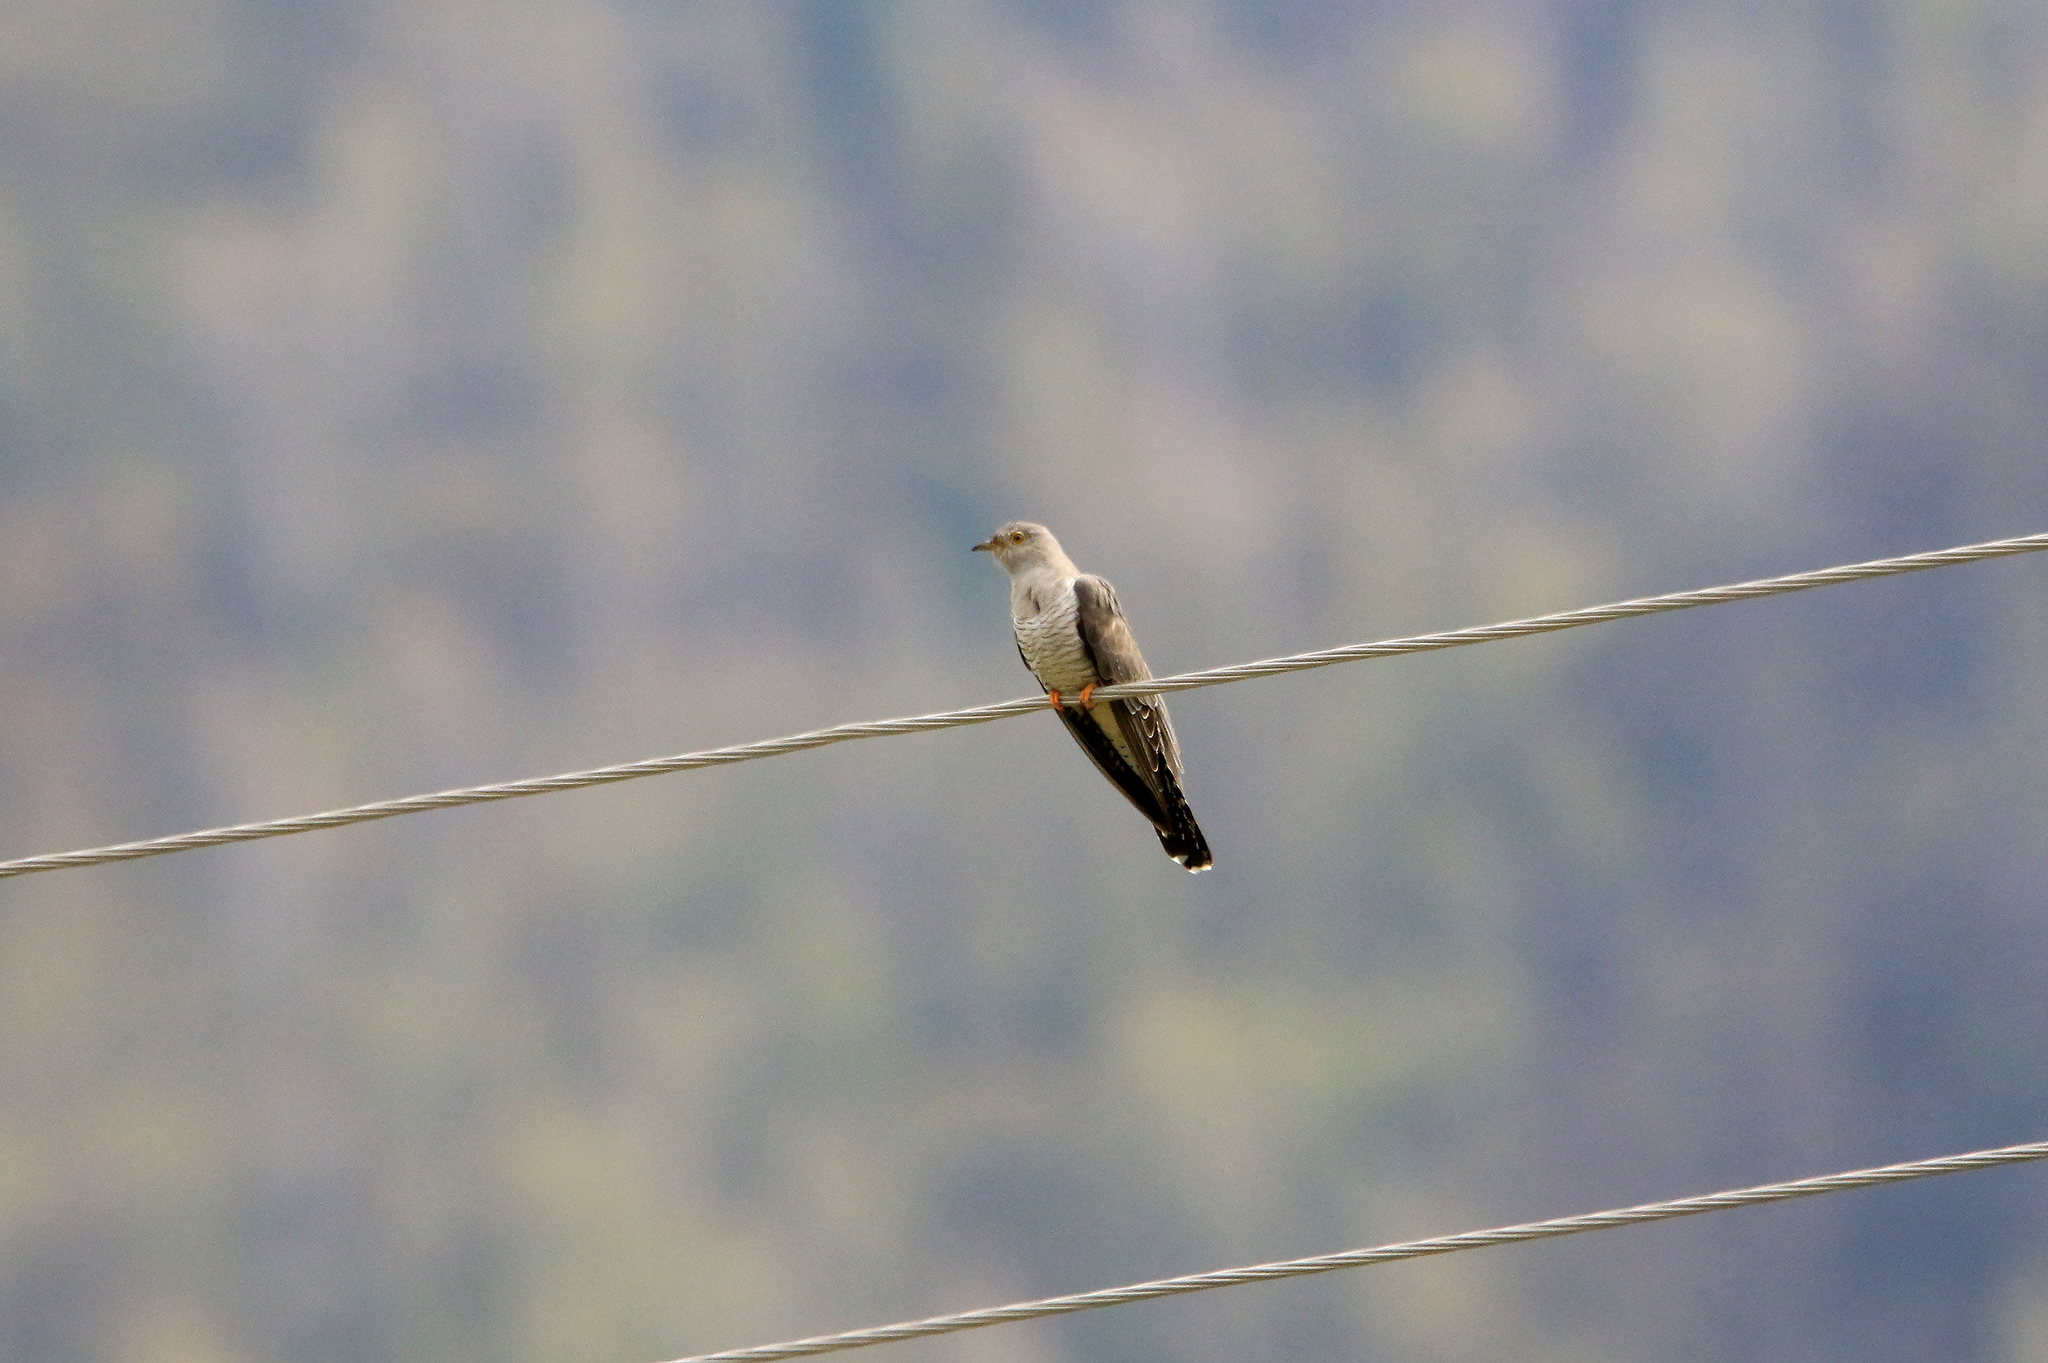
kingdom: Animalia
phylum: Chordata
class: Aves
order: Cuculiformes
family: Cuculidae
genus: Cuculus
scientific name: Cuculus canorus
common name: Common cuckoo
